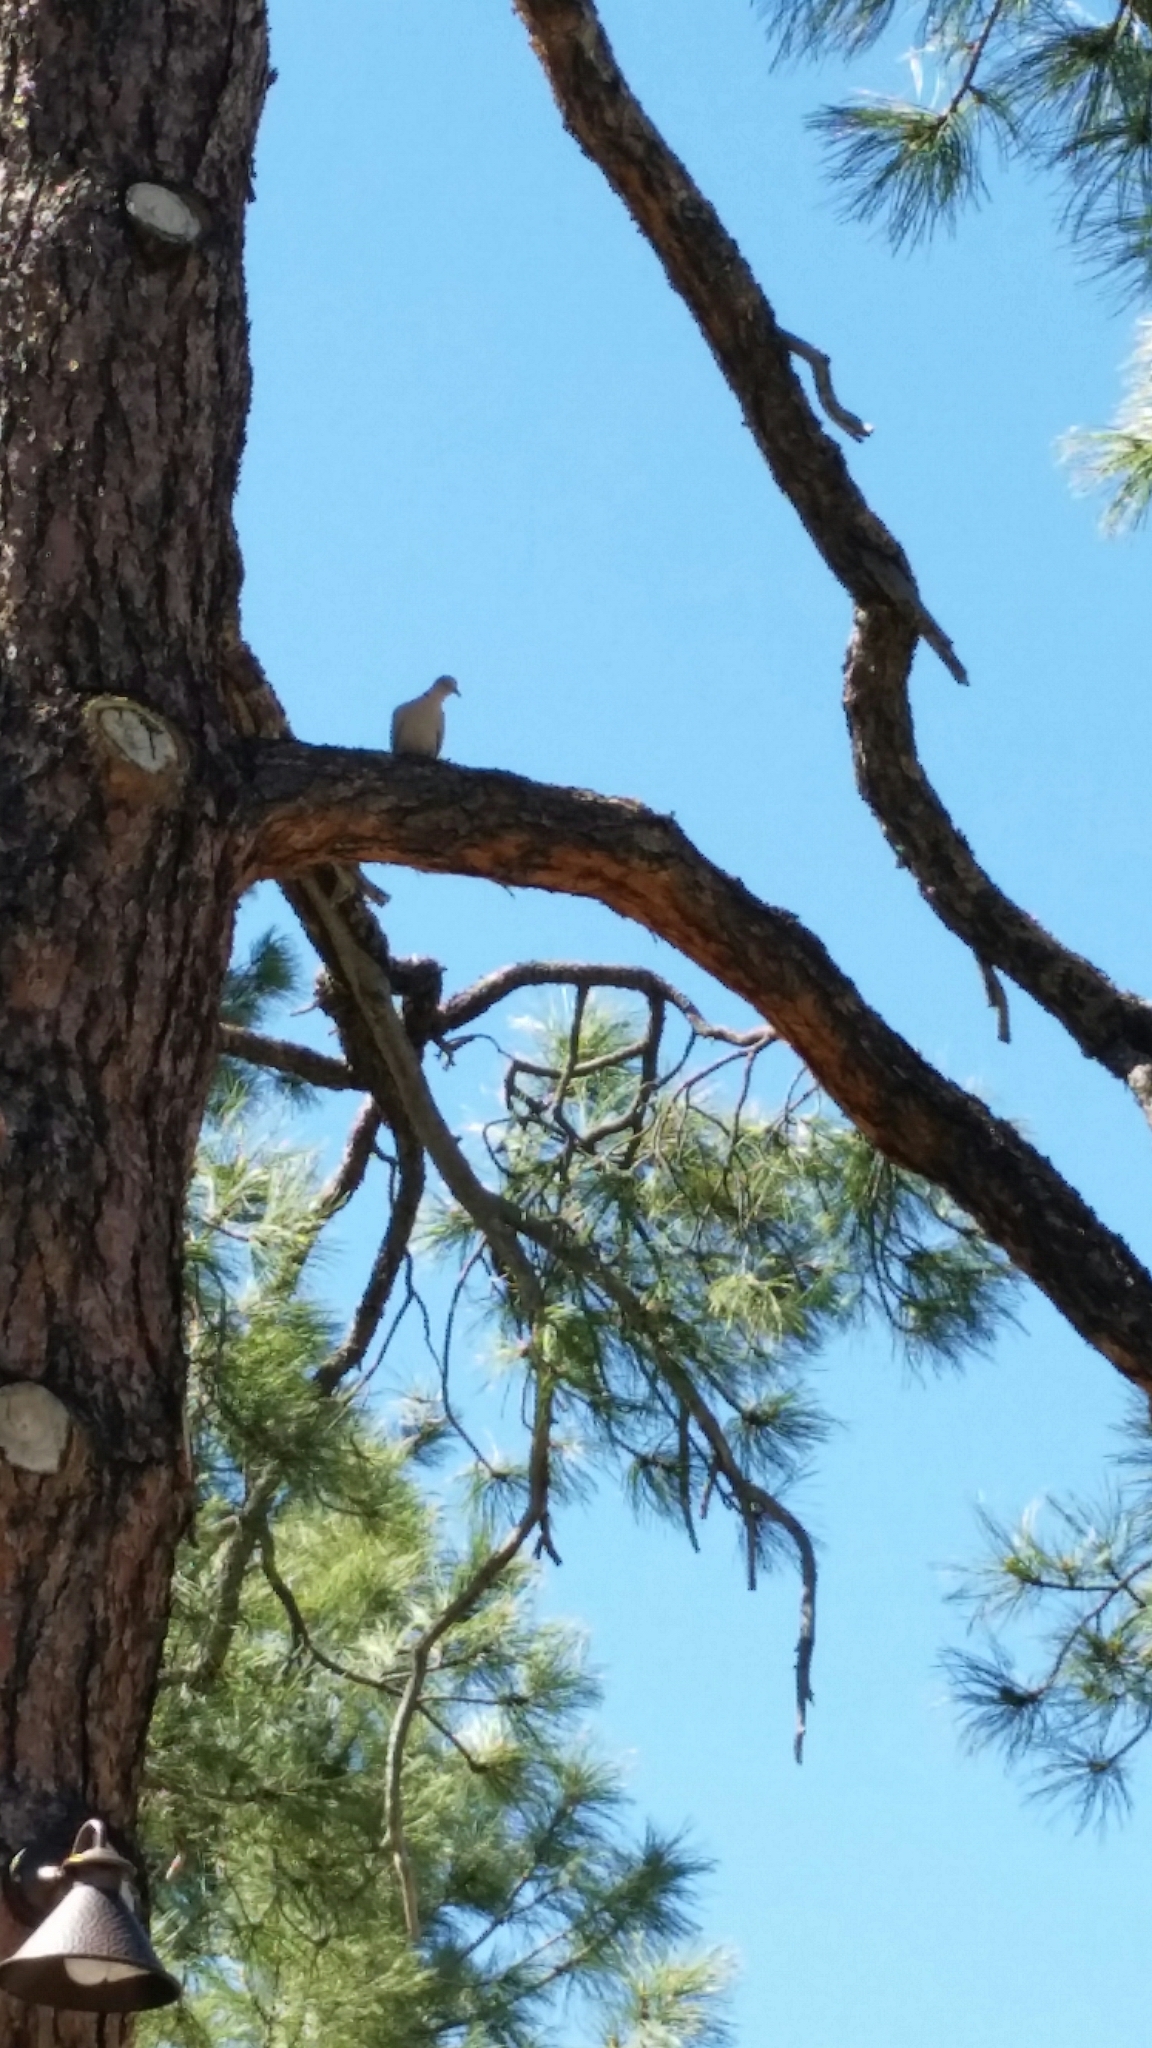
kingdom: Animalia
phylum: Chordata
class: Aves
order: Columbiformes
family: Columbidae
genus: Streptopelia
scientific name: Streptopelia decaocto
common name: Eurasian collared dove
